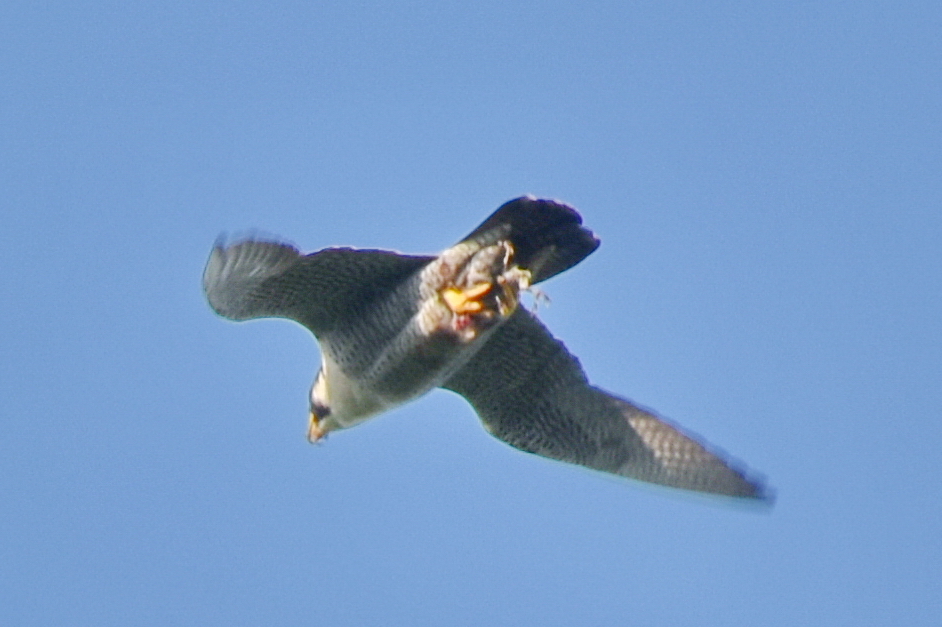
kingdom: Animalia
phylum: Chordata
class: Aves
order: Falconiformes
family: Falconidae
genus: Falco
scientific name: Falco peregrinus
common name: Peregrine falcon
